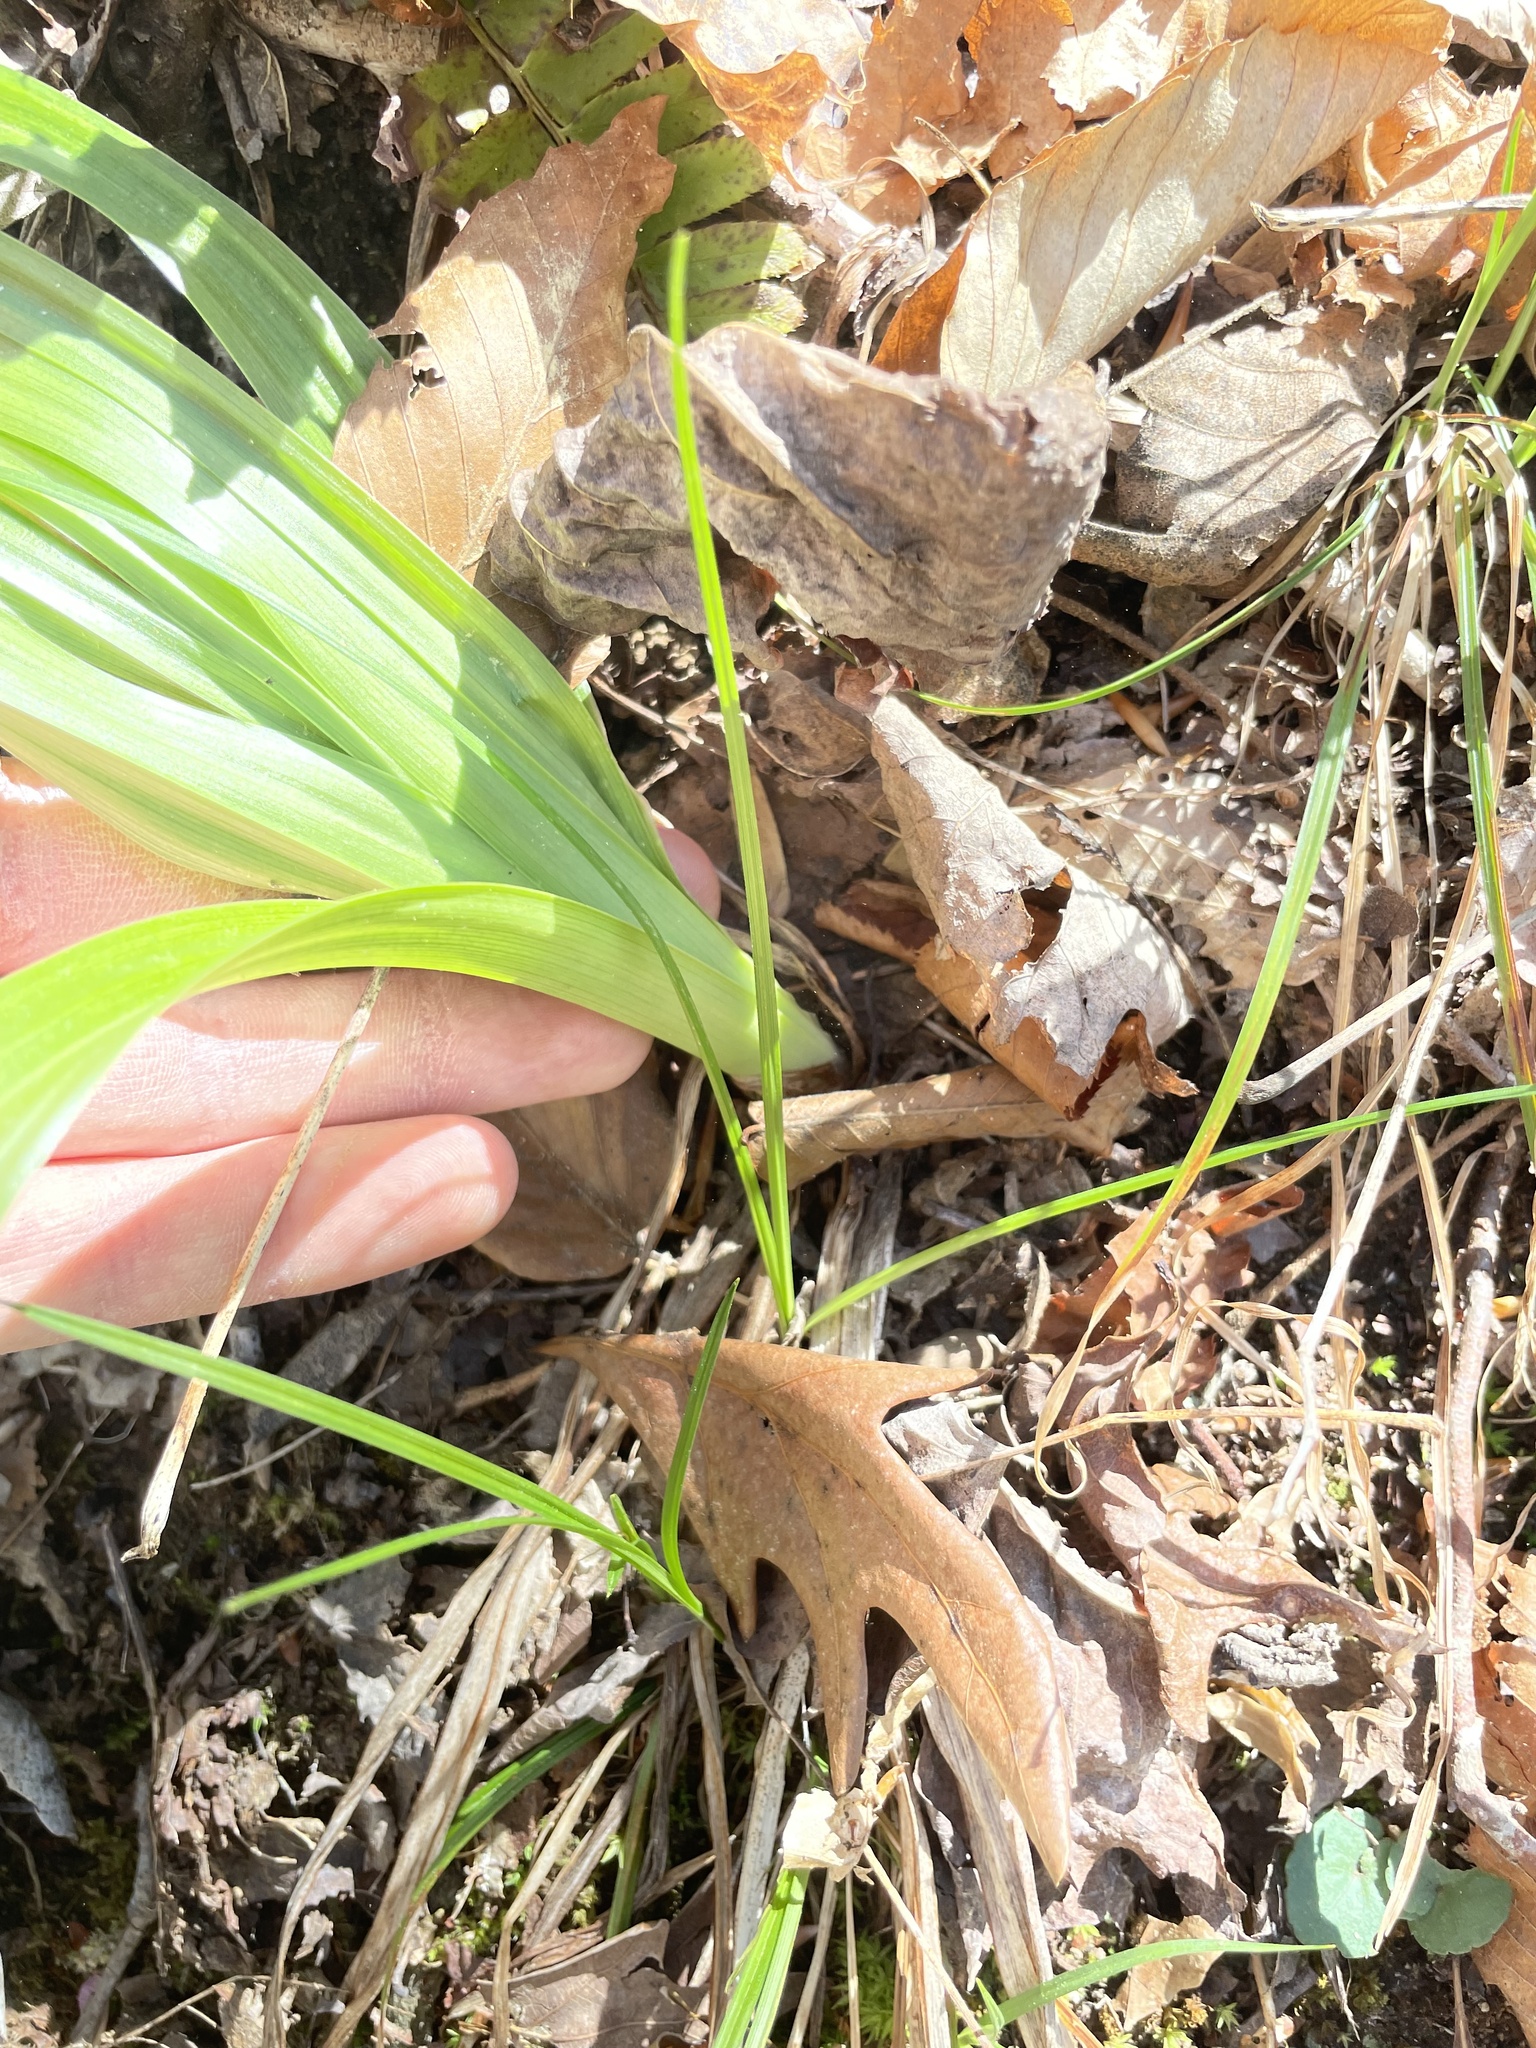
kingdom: Plantae
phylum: Tracheophyta
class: Liliopsida
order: Liliales
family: Melanthiaceae
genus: Amianthium
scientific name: Amianthium muscitoxicum
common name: Fly-poison
